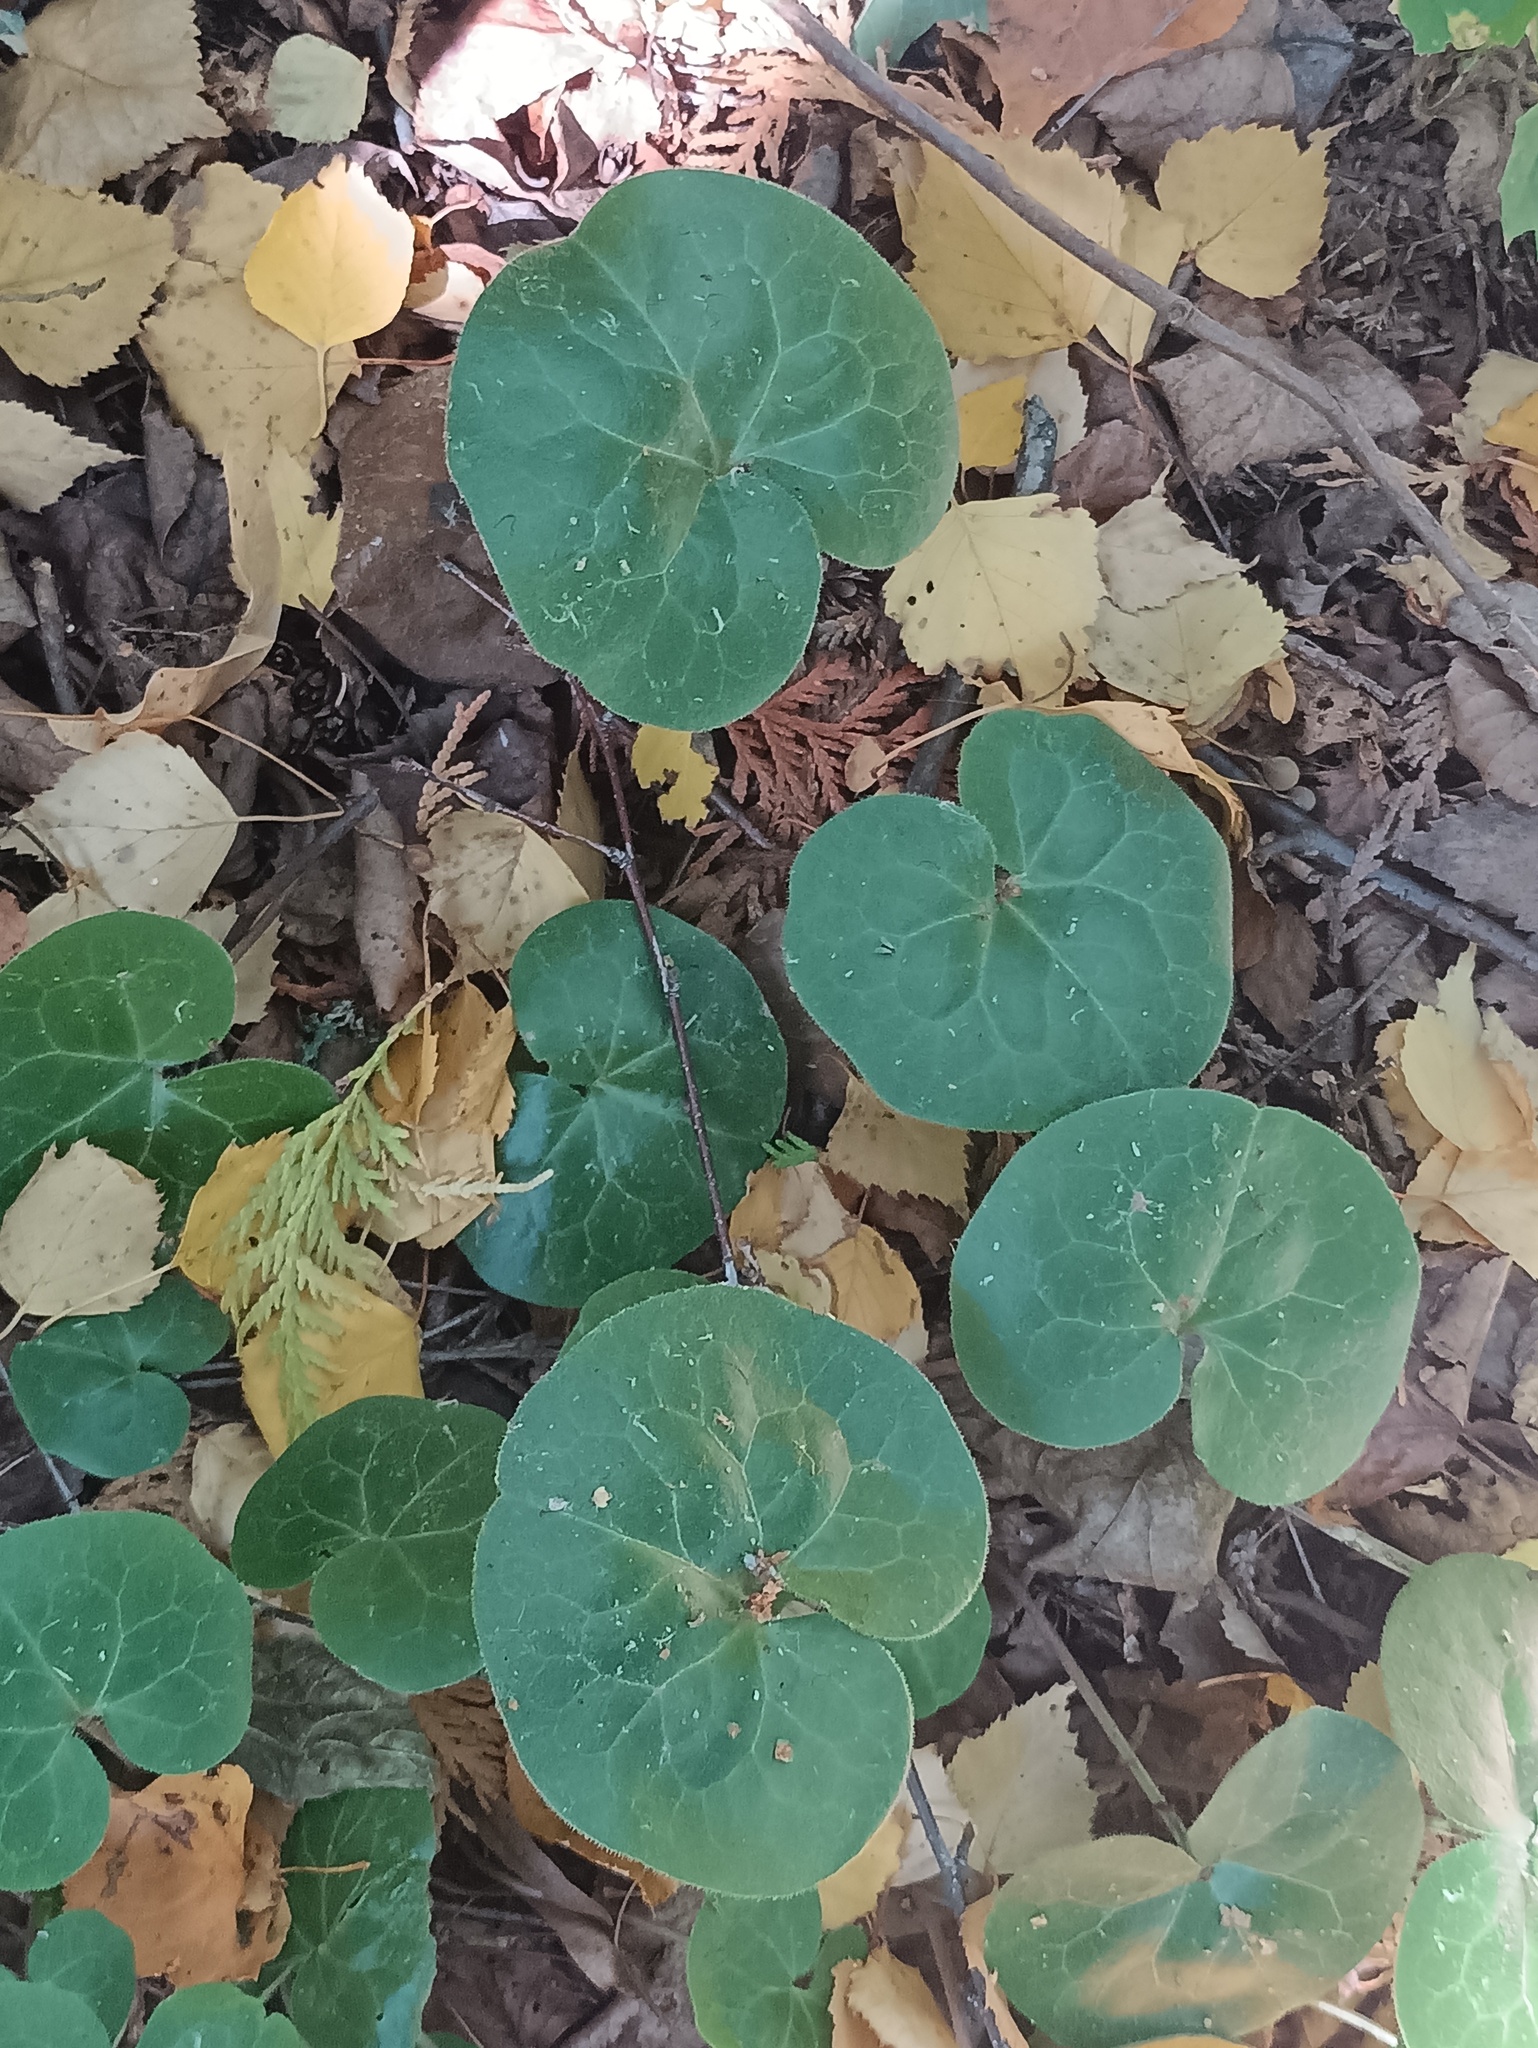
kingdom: Plantae
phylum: Tracheophyta
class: Magnoliopsida
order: Piperales
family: Aristolochiaceae
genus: Asarum
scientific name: Asarum europaeum
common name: Asarabacca
